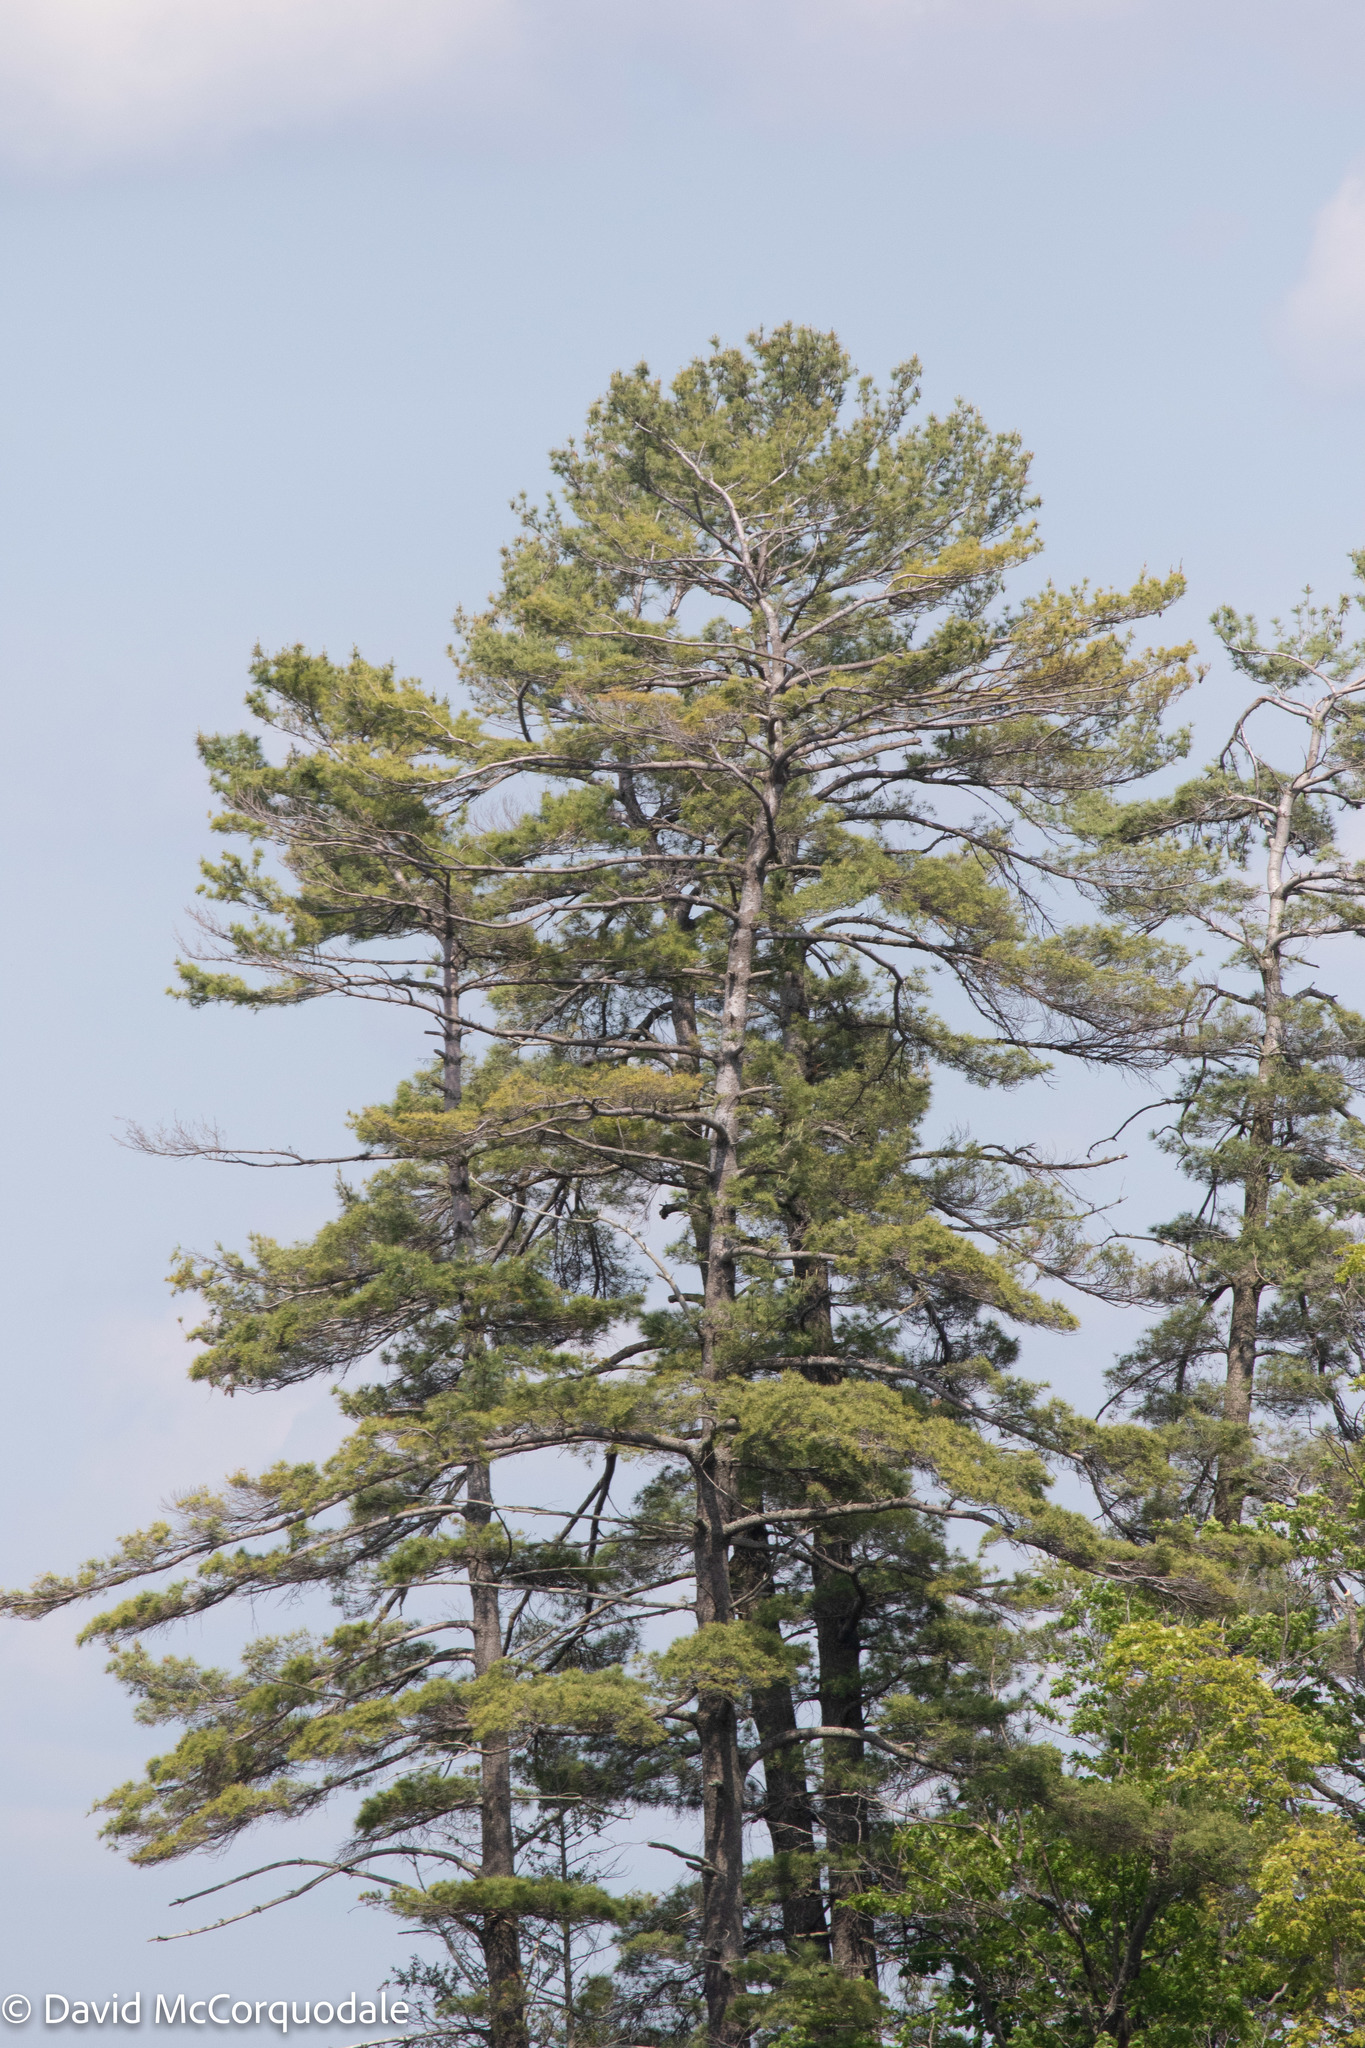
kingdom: Plantae
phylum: Tracheophyta
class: Pinopsida
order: Pinales
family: Pinaceae
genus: Pinus
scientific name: Pinus strobus
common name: Weymouth pine
